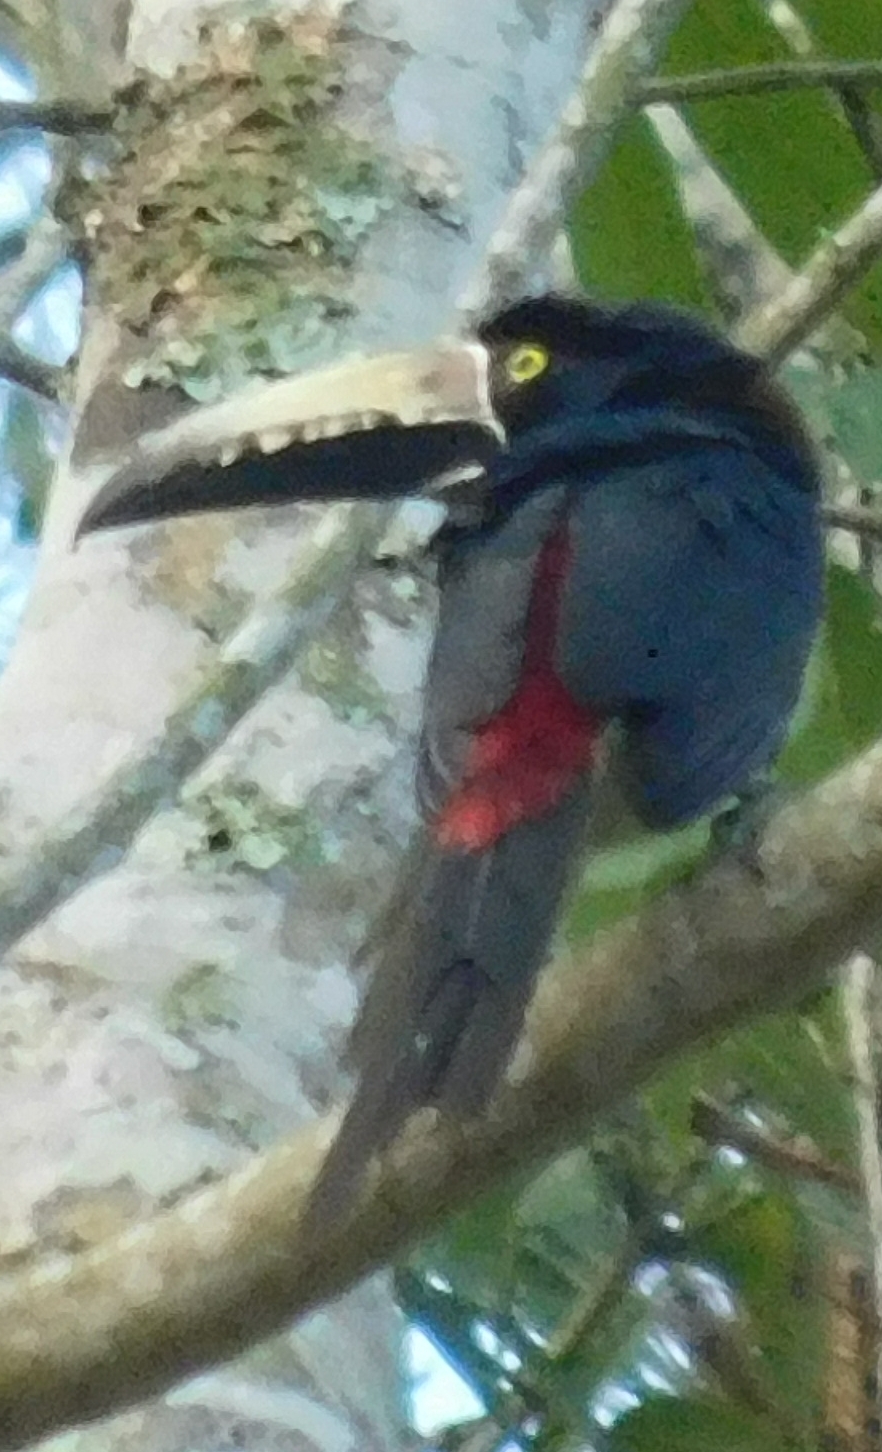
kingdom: Animalia
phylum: Chordata
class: Aves
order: Piciformes
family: Ramphastidae
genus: Pteroglossus
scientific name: Pteroglossus torquatus
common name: Collared aracari
